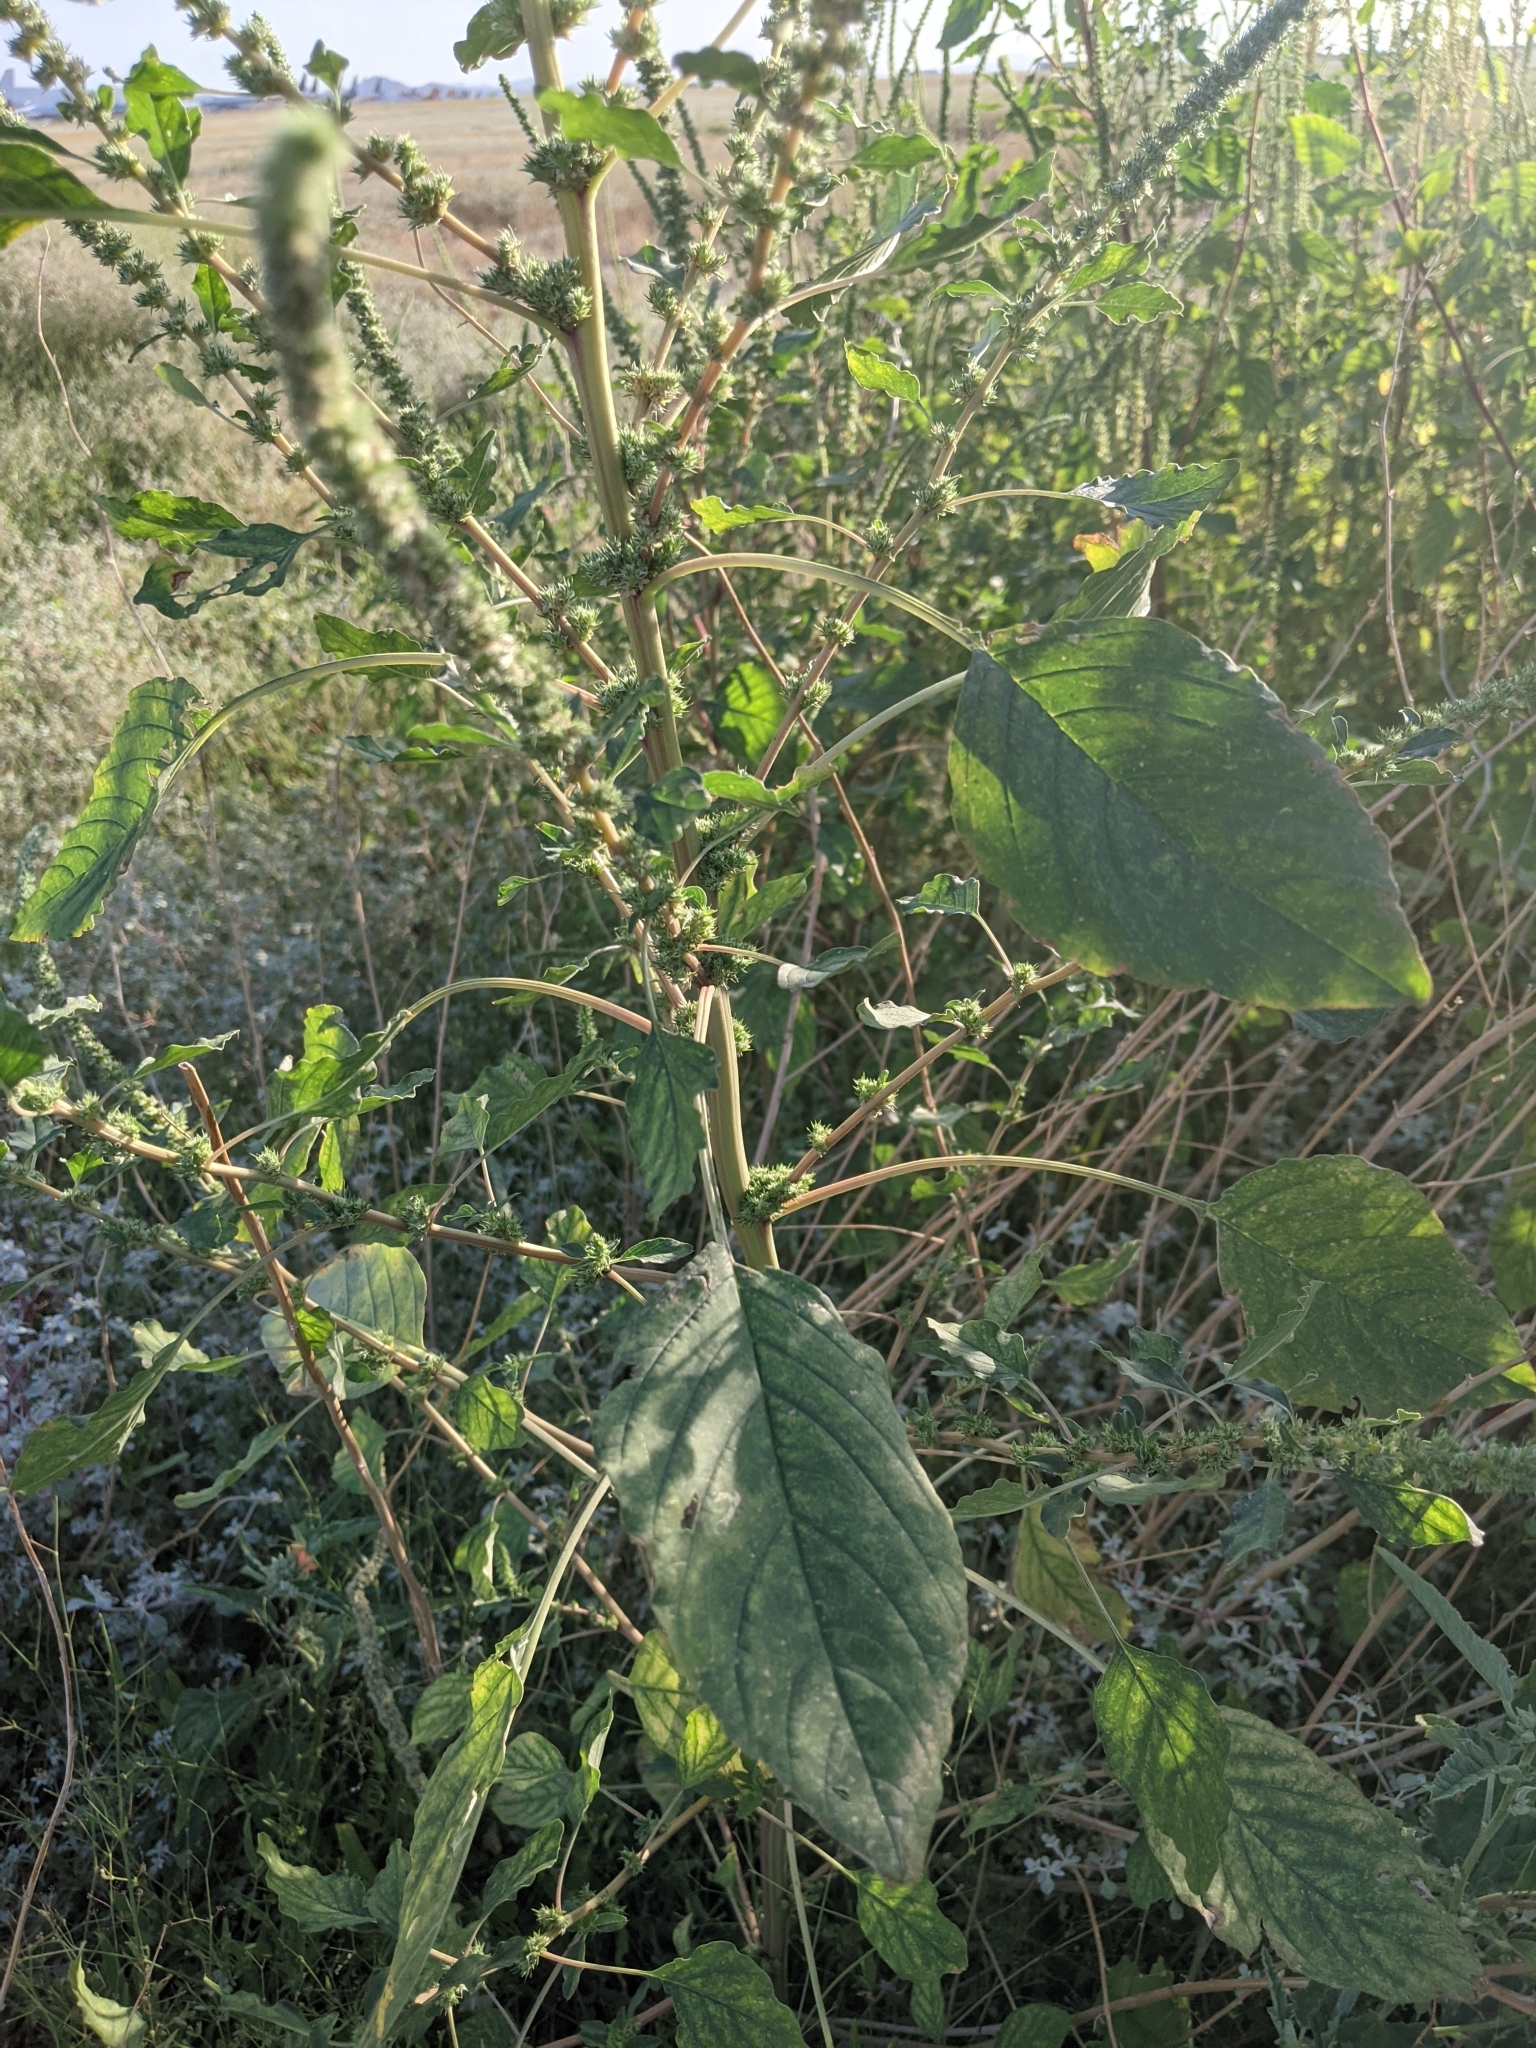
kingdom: Plantae
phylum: Tracheophyta
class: Magnoliopsida
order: Caryophyllales
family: Amaranthaceae
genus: Amaranthus
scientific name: Amaranthus palmeri
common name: Dioecious amaranth
